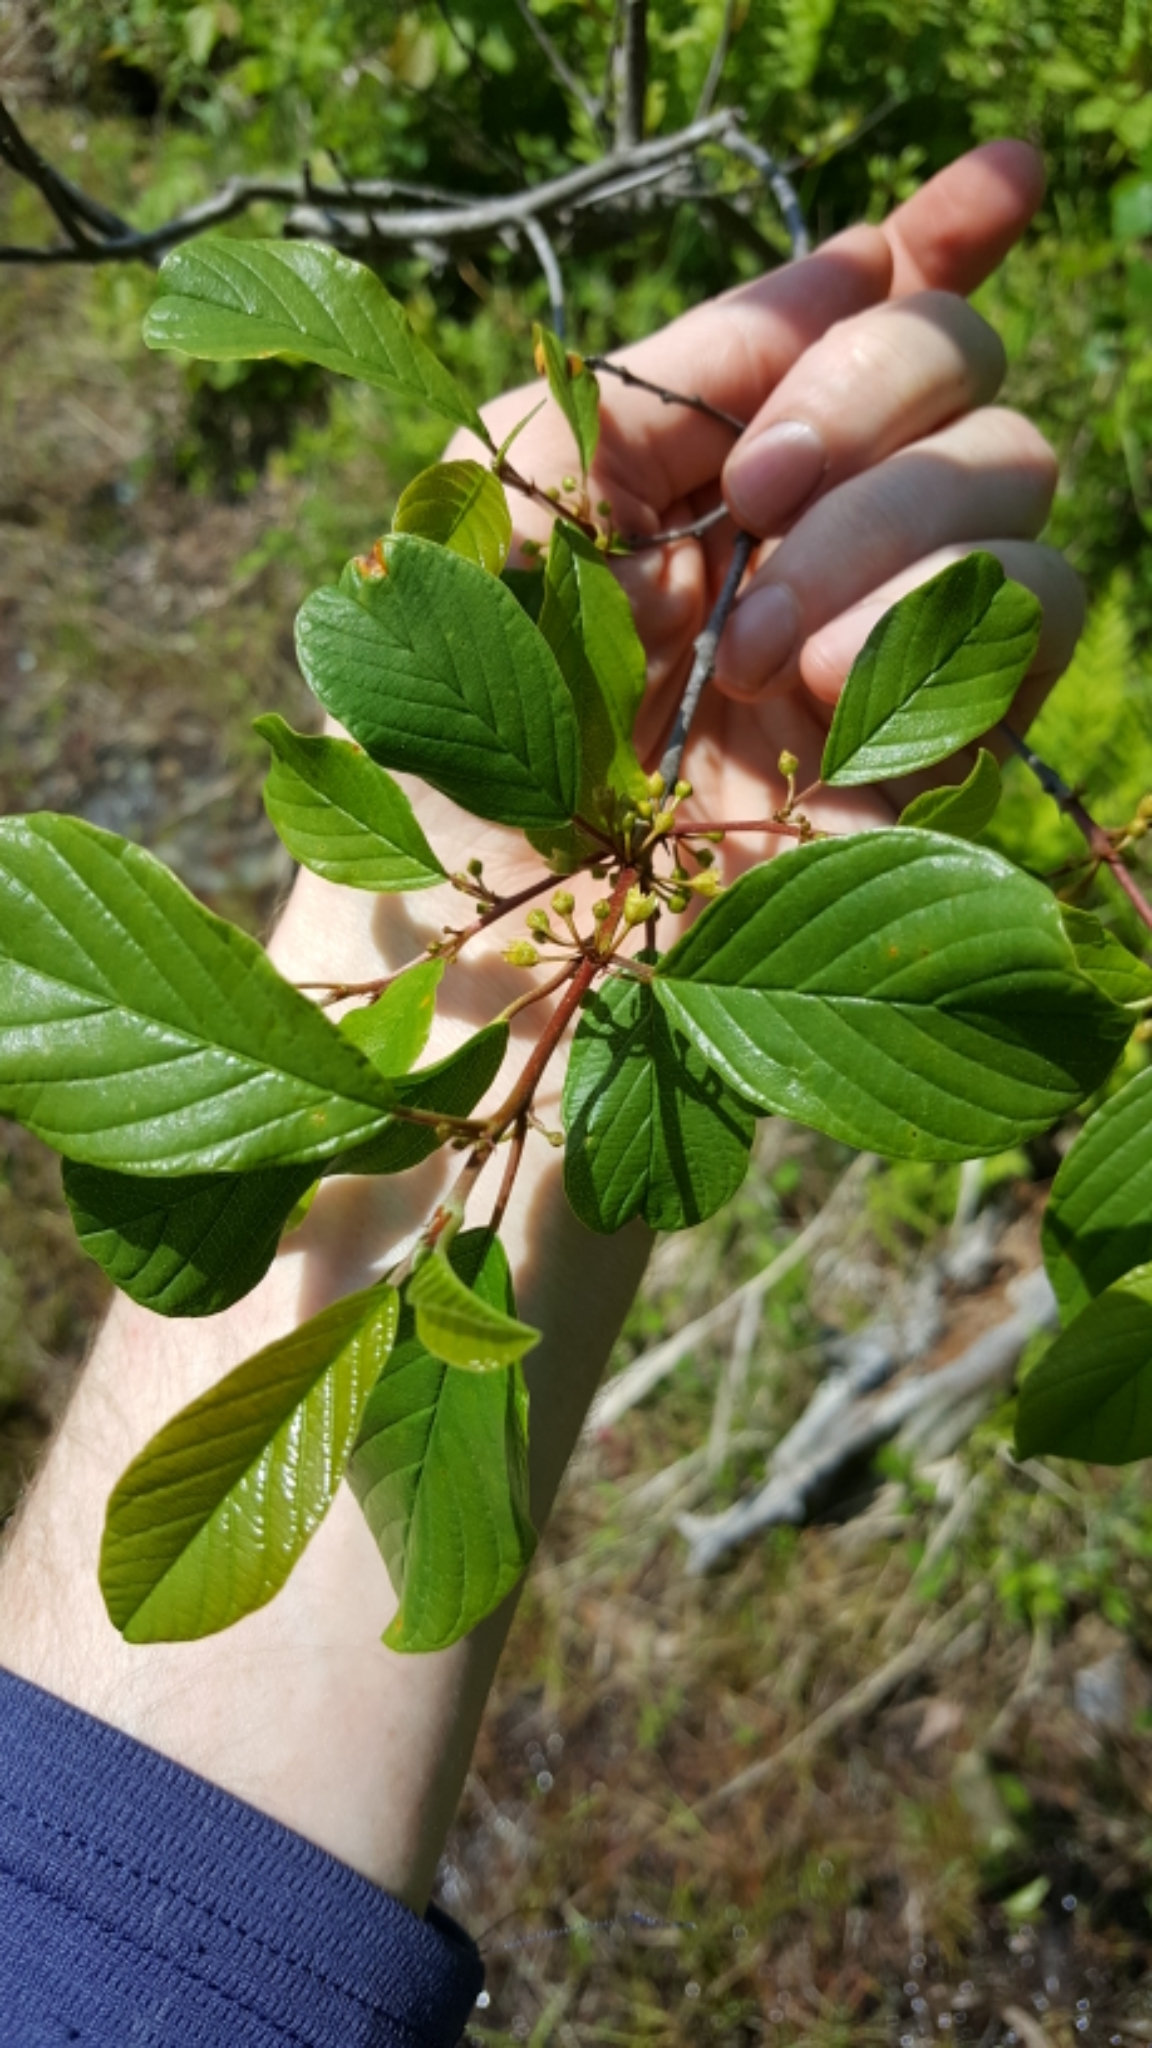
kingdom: Plantae
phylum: Tracheophyta
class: Magnoliopsida
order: Rosales
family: Rhamnaceae
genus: Frangula
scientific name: Frangula alnus
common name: Alder buckthorn
